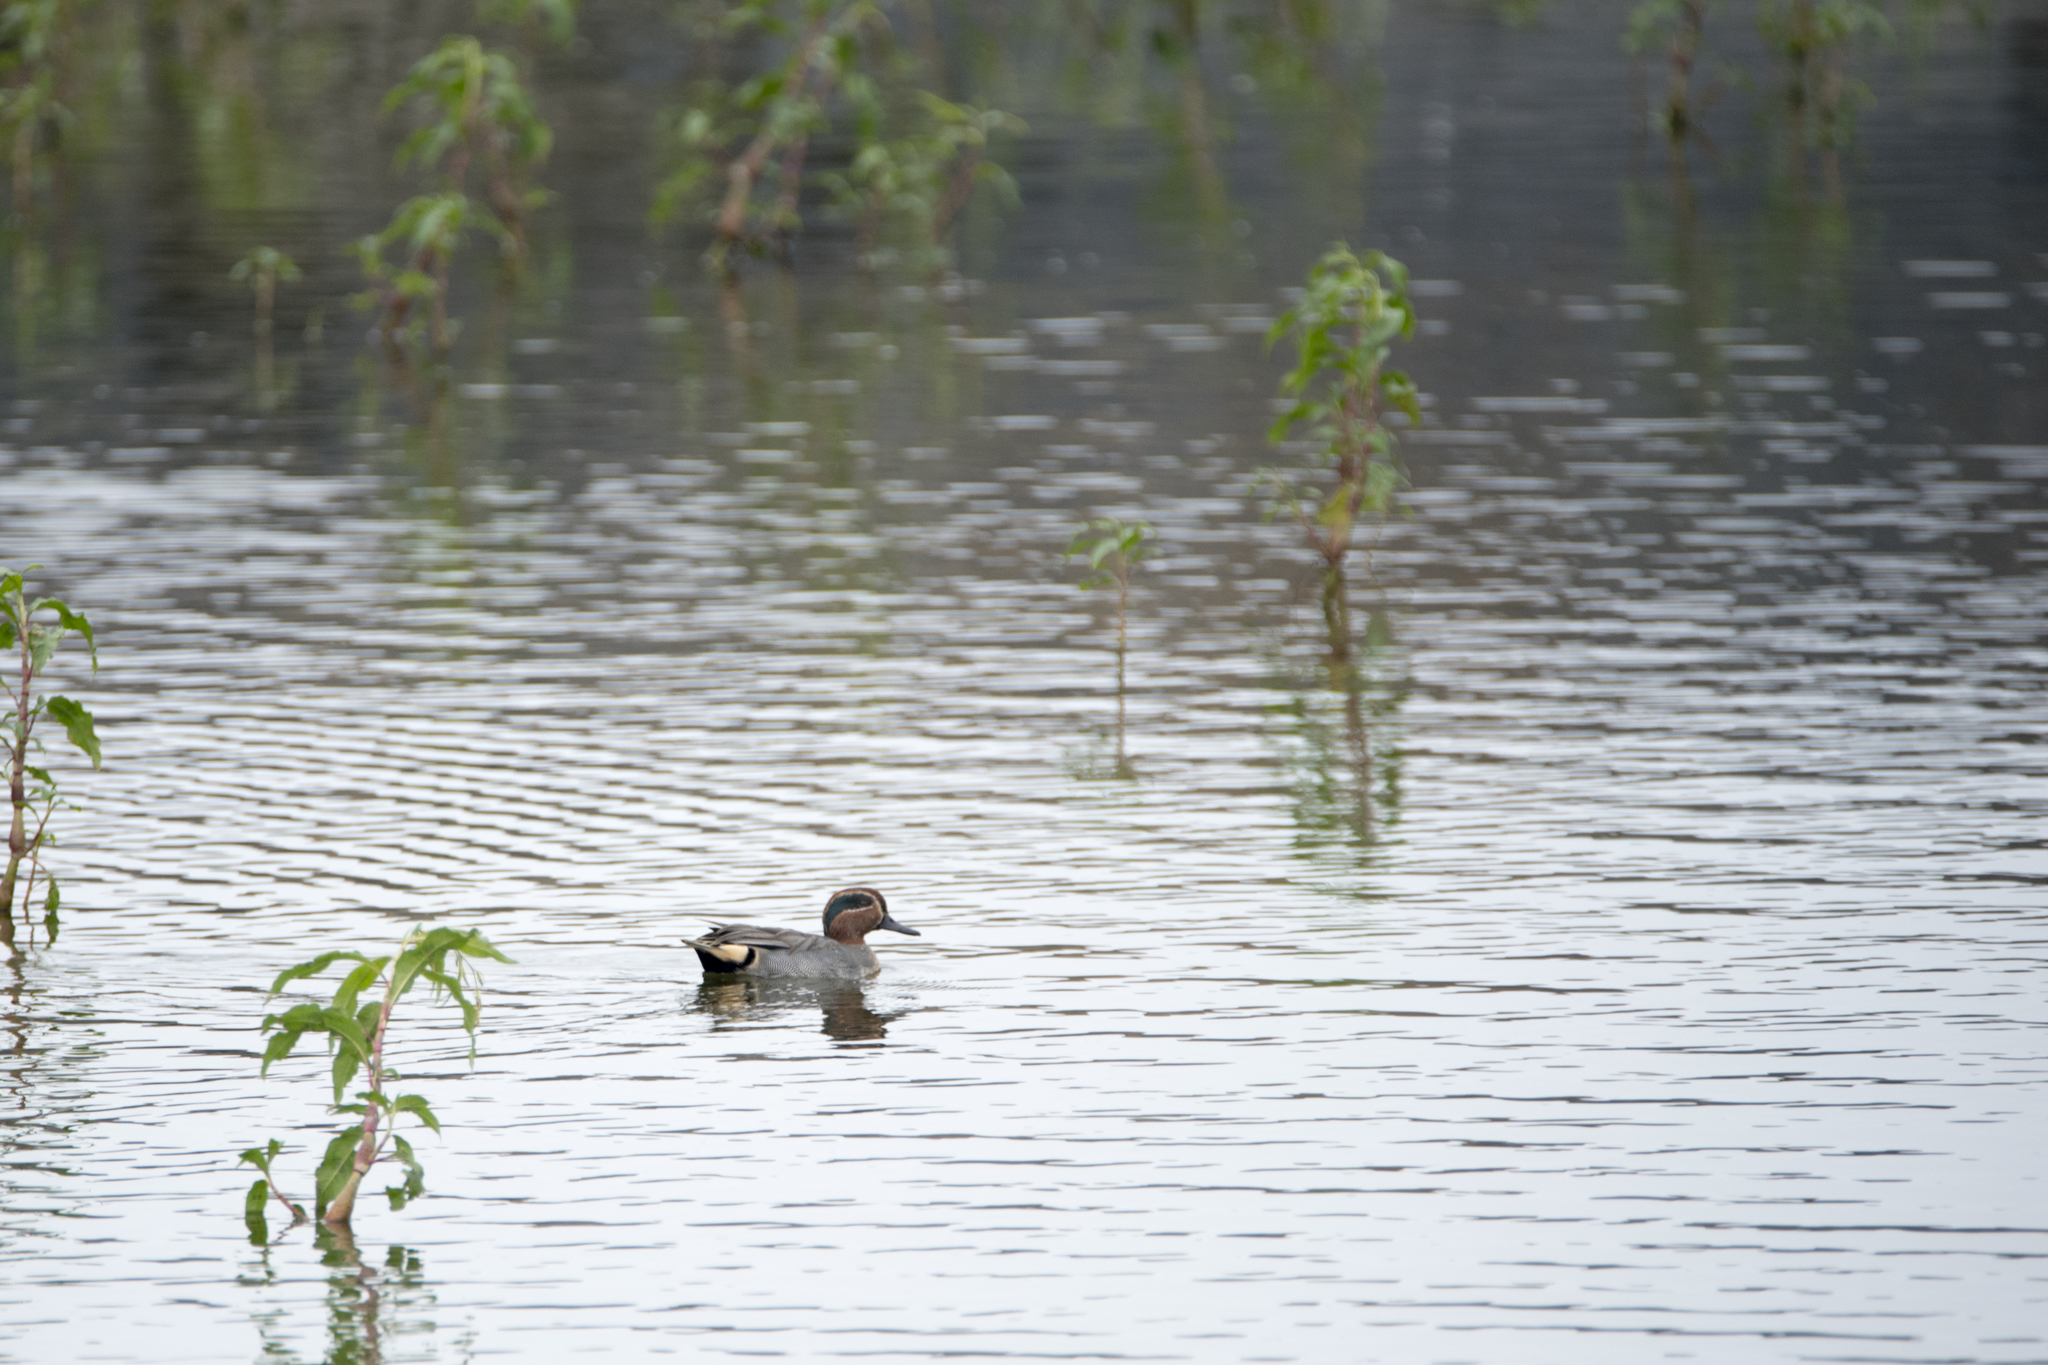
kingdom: Animalia
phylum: Chordata
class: Aves
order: Anseriformes
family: Anatidae
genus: Anas
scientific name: Anas crecca
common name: Eurasian teal
